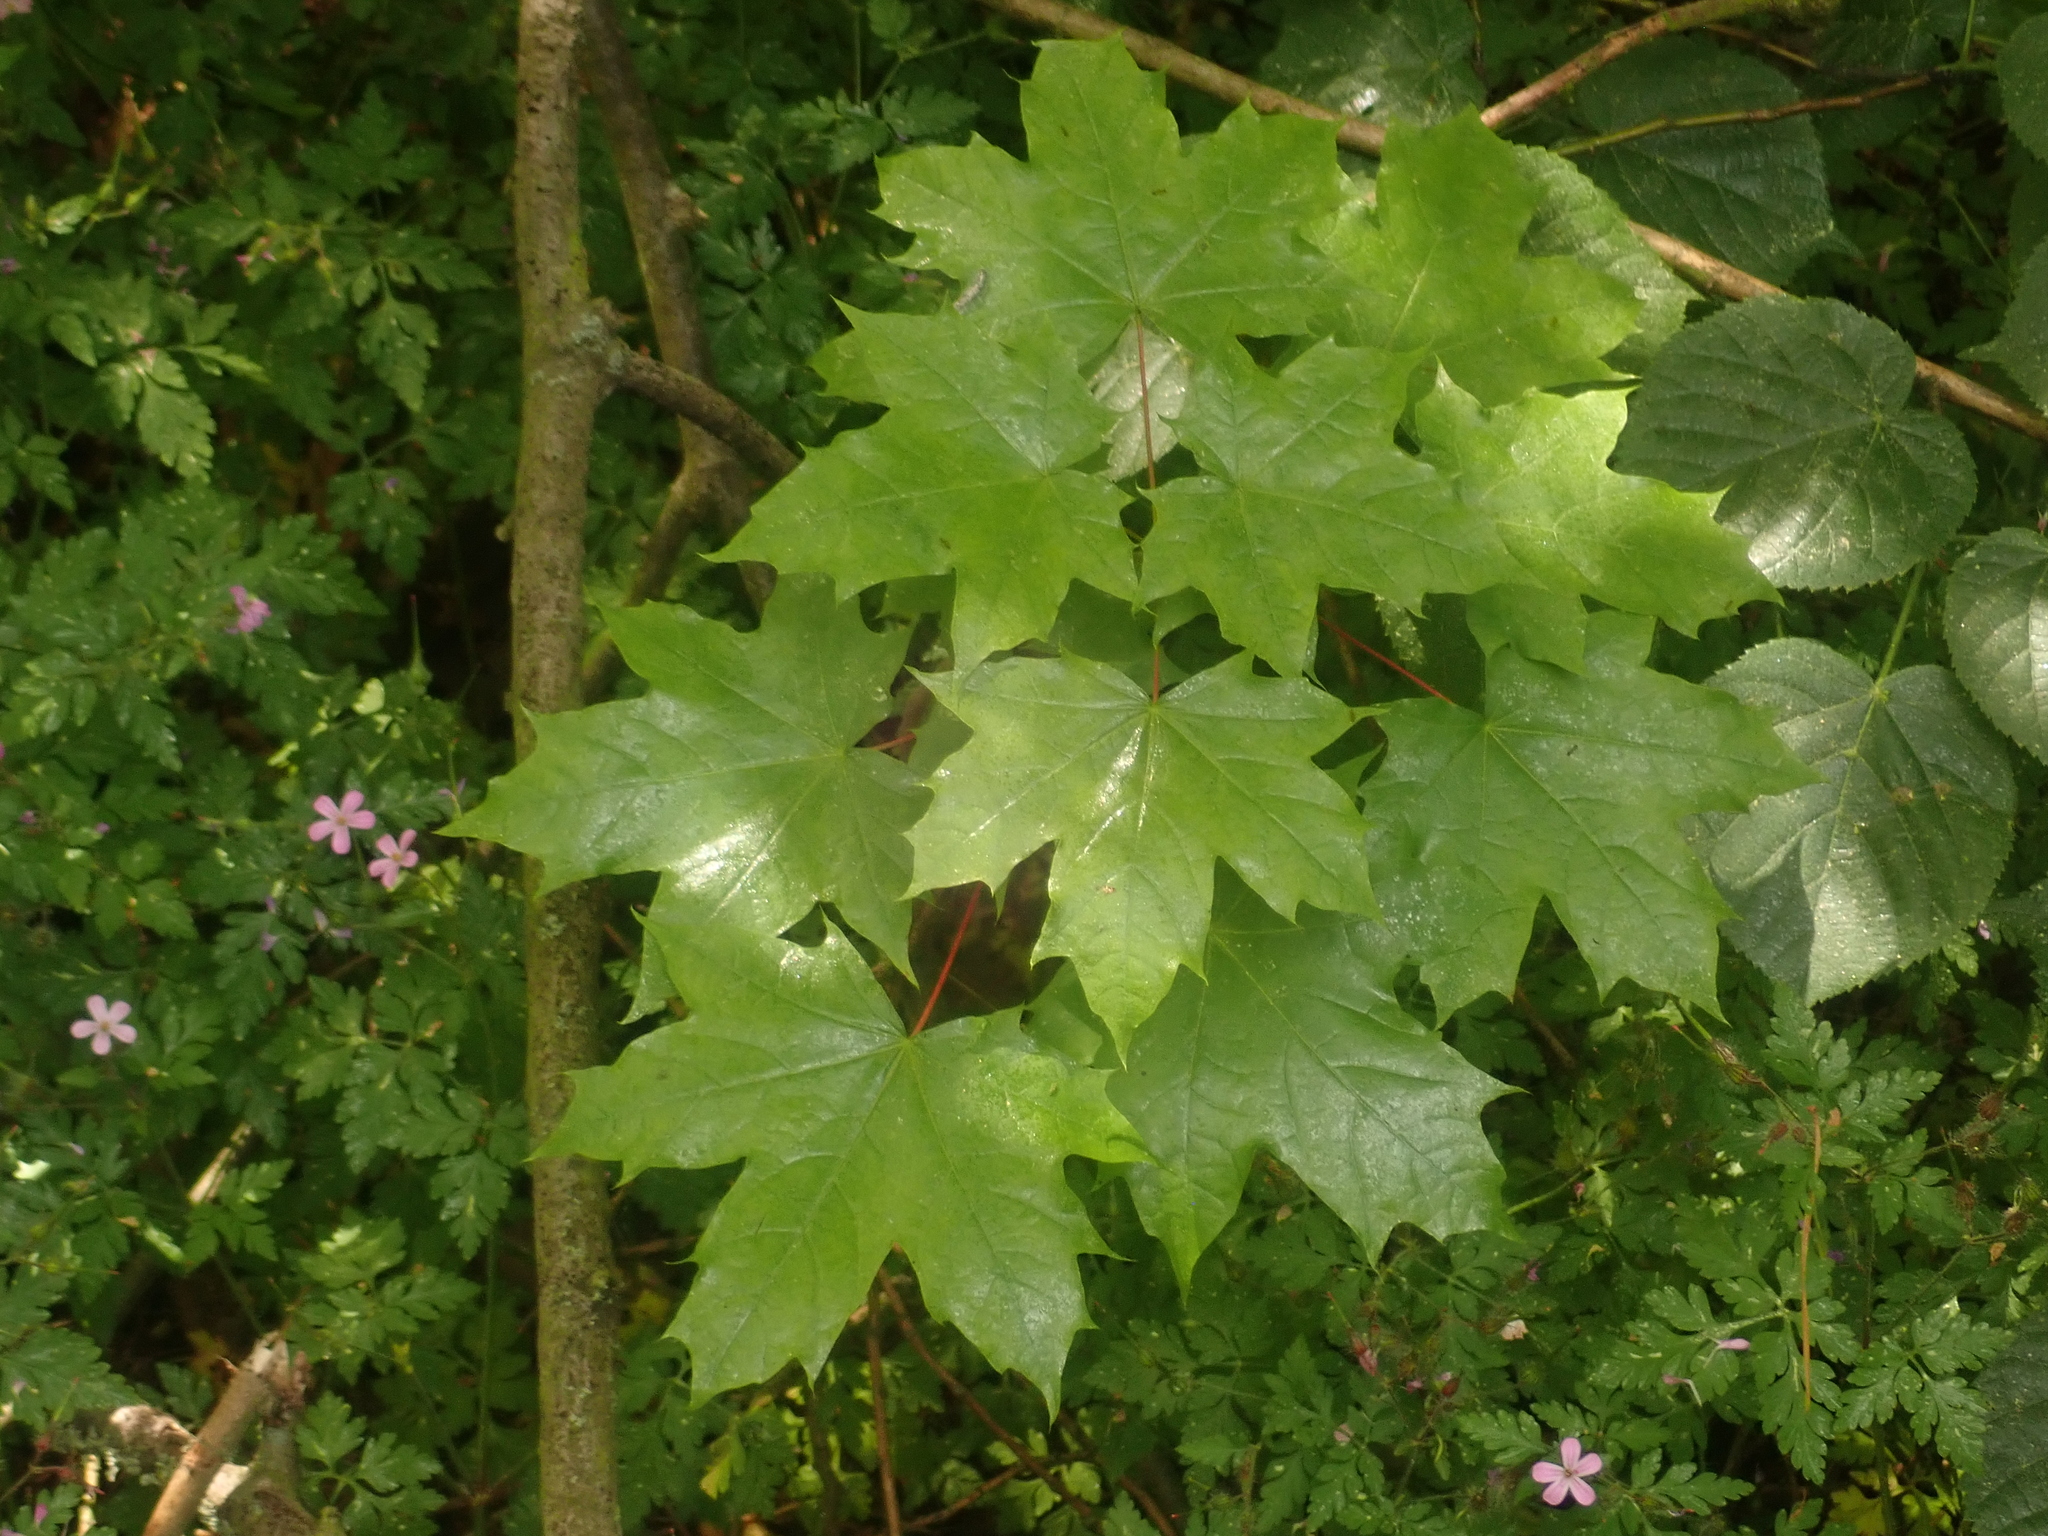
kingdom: Plantae
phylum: Tracheophyta
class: Magnoliopsida
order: Sapindales
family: Sapindaceae
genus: Acer
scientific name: Acer platanoides
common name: Norway maple
